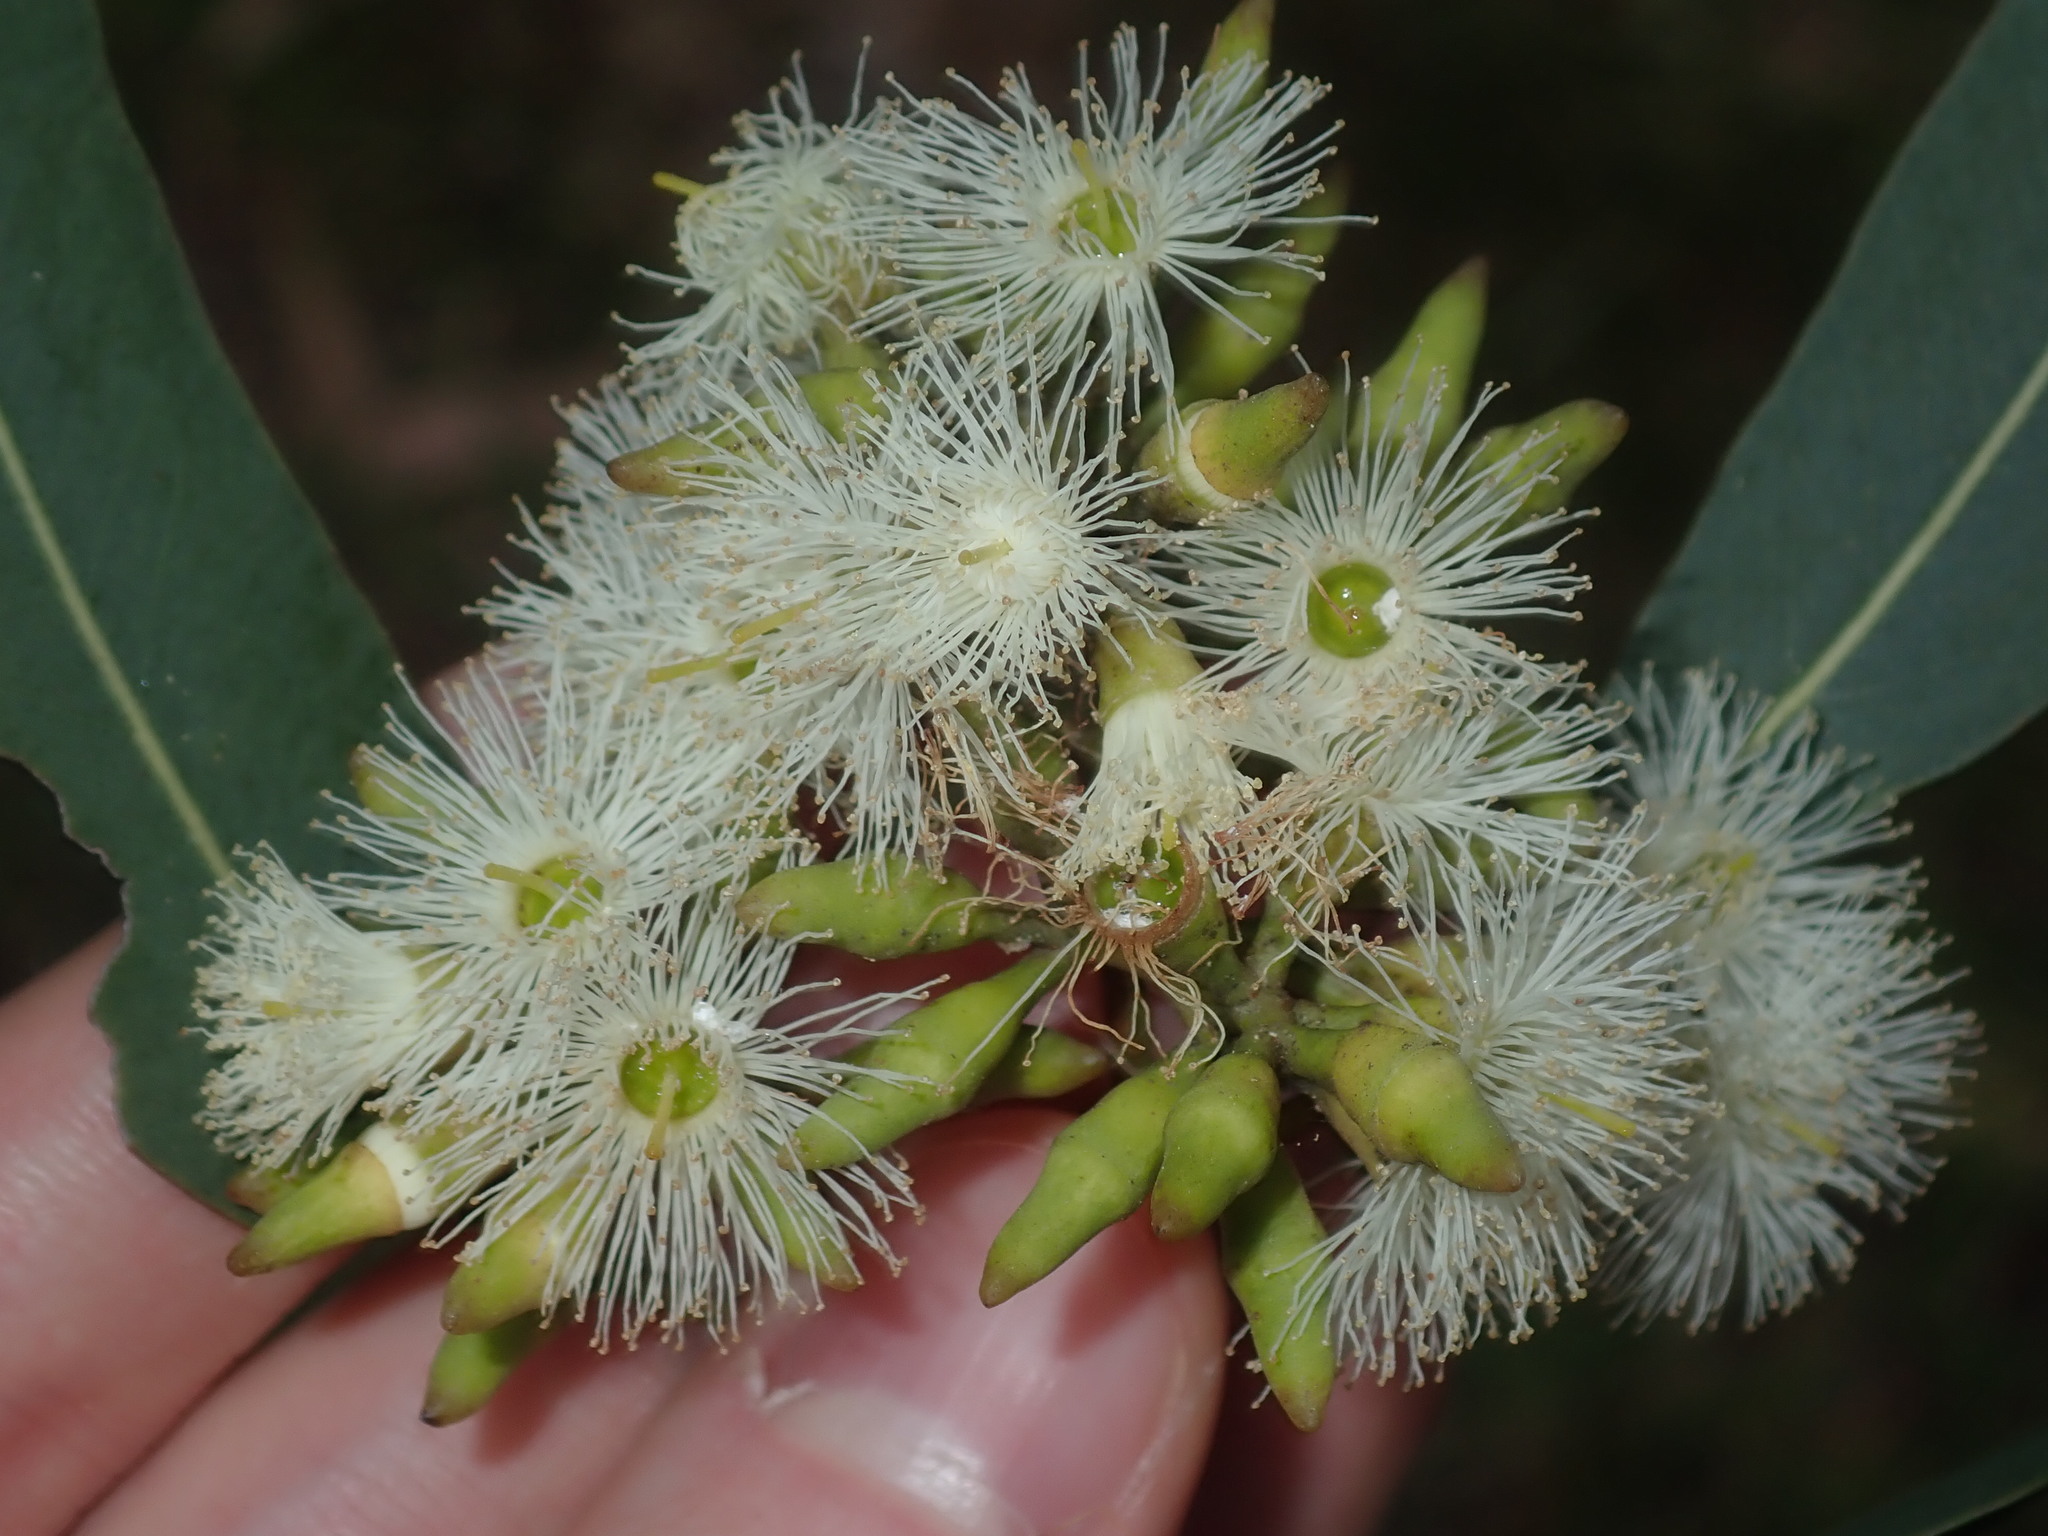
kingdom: Plantae
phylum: Tracheophyta
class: Magnoliopsida
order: Myrtales
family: Myrtaceae
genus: Eucalyptus
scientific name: Eucalyptus fibrosa
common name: Red ironbark
